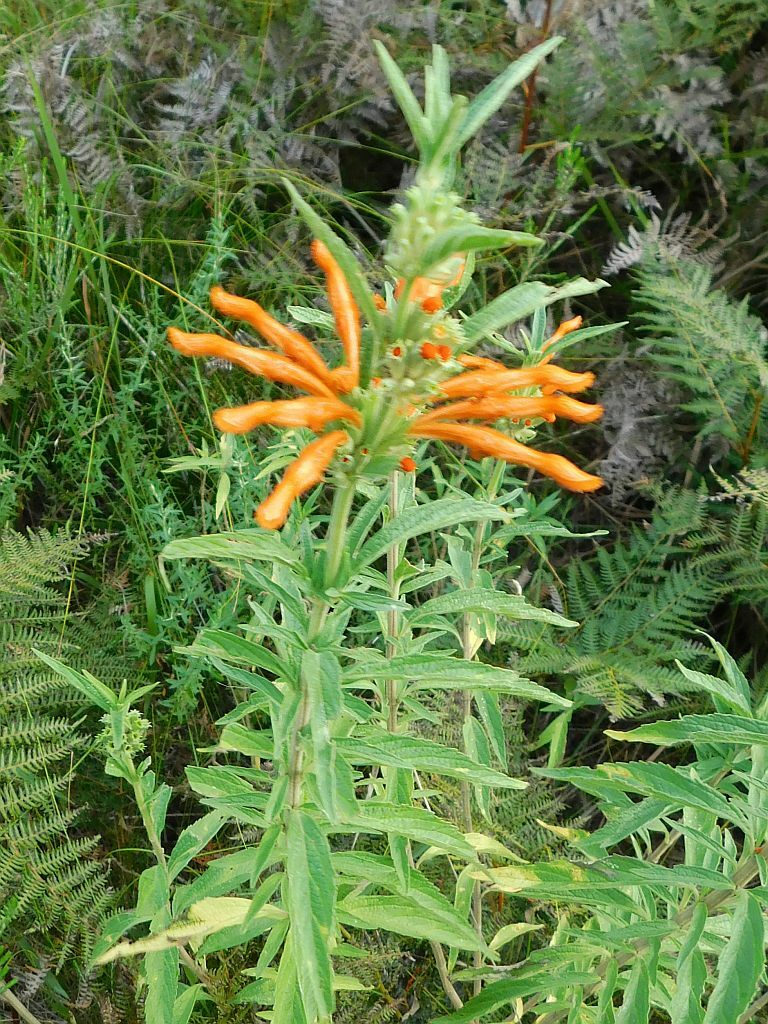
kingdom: Plantae
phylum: Tracheophyta
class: Magnoliopsida
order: Lamiales
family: Lamiaceae
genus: Leonotis
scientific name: Leonotis leonurus
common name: Lion's ear
